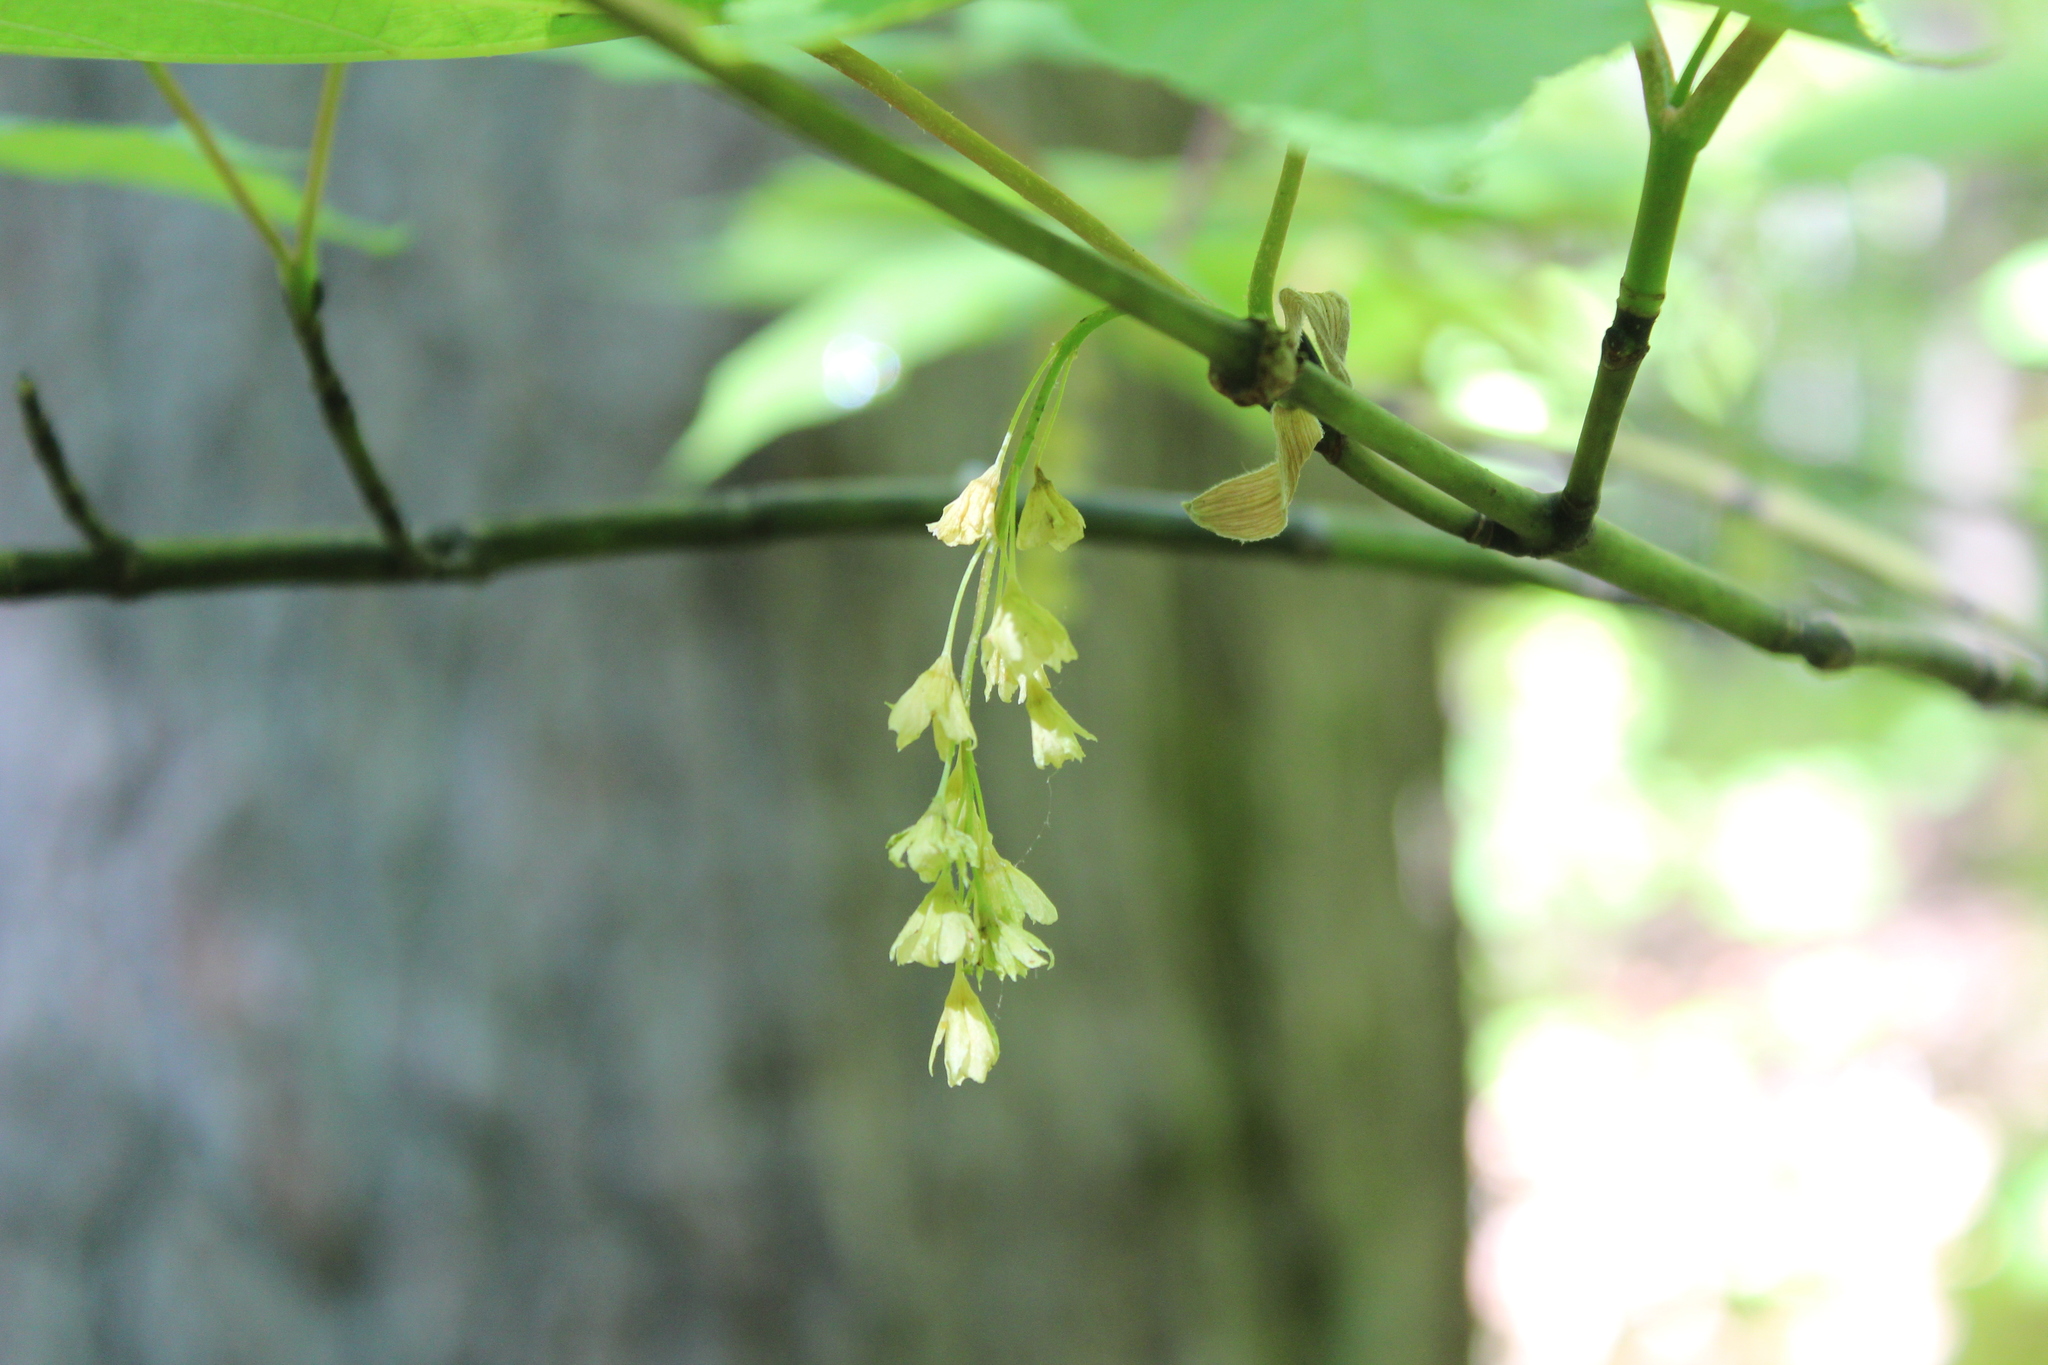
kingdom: Plantae
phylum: Tracheophyta
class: Magnoliopsida
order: Sapindales
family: Sapindaceae
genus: Acer
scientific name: Acer pensylvanicum
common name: Moosewood
